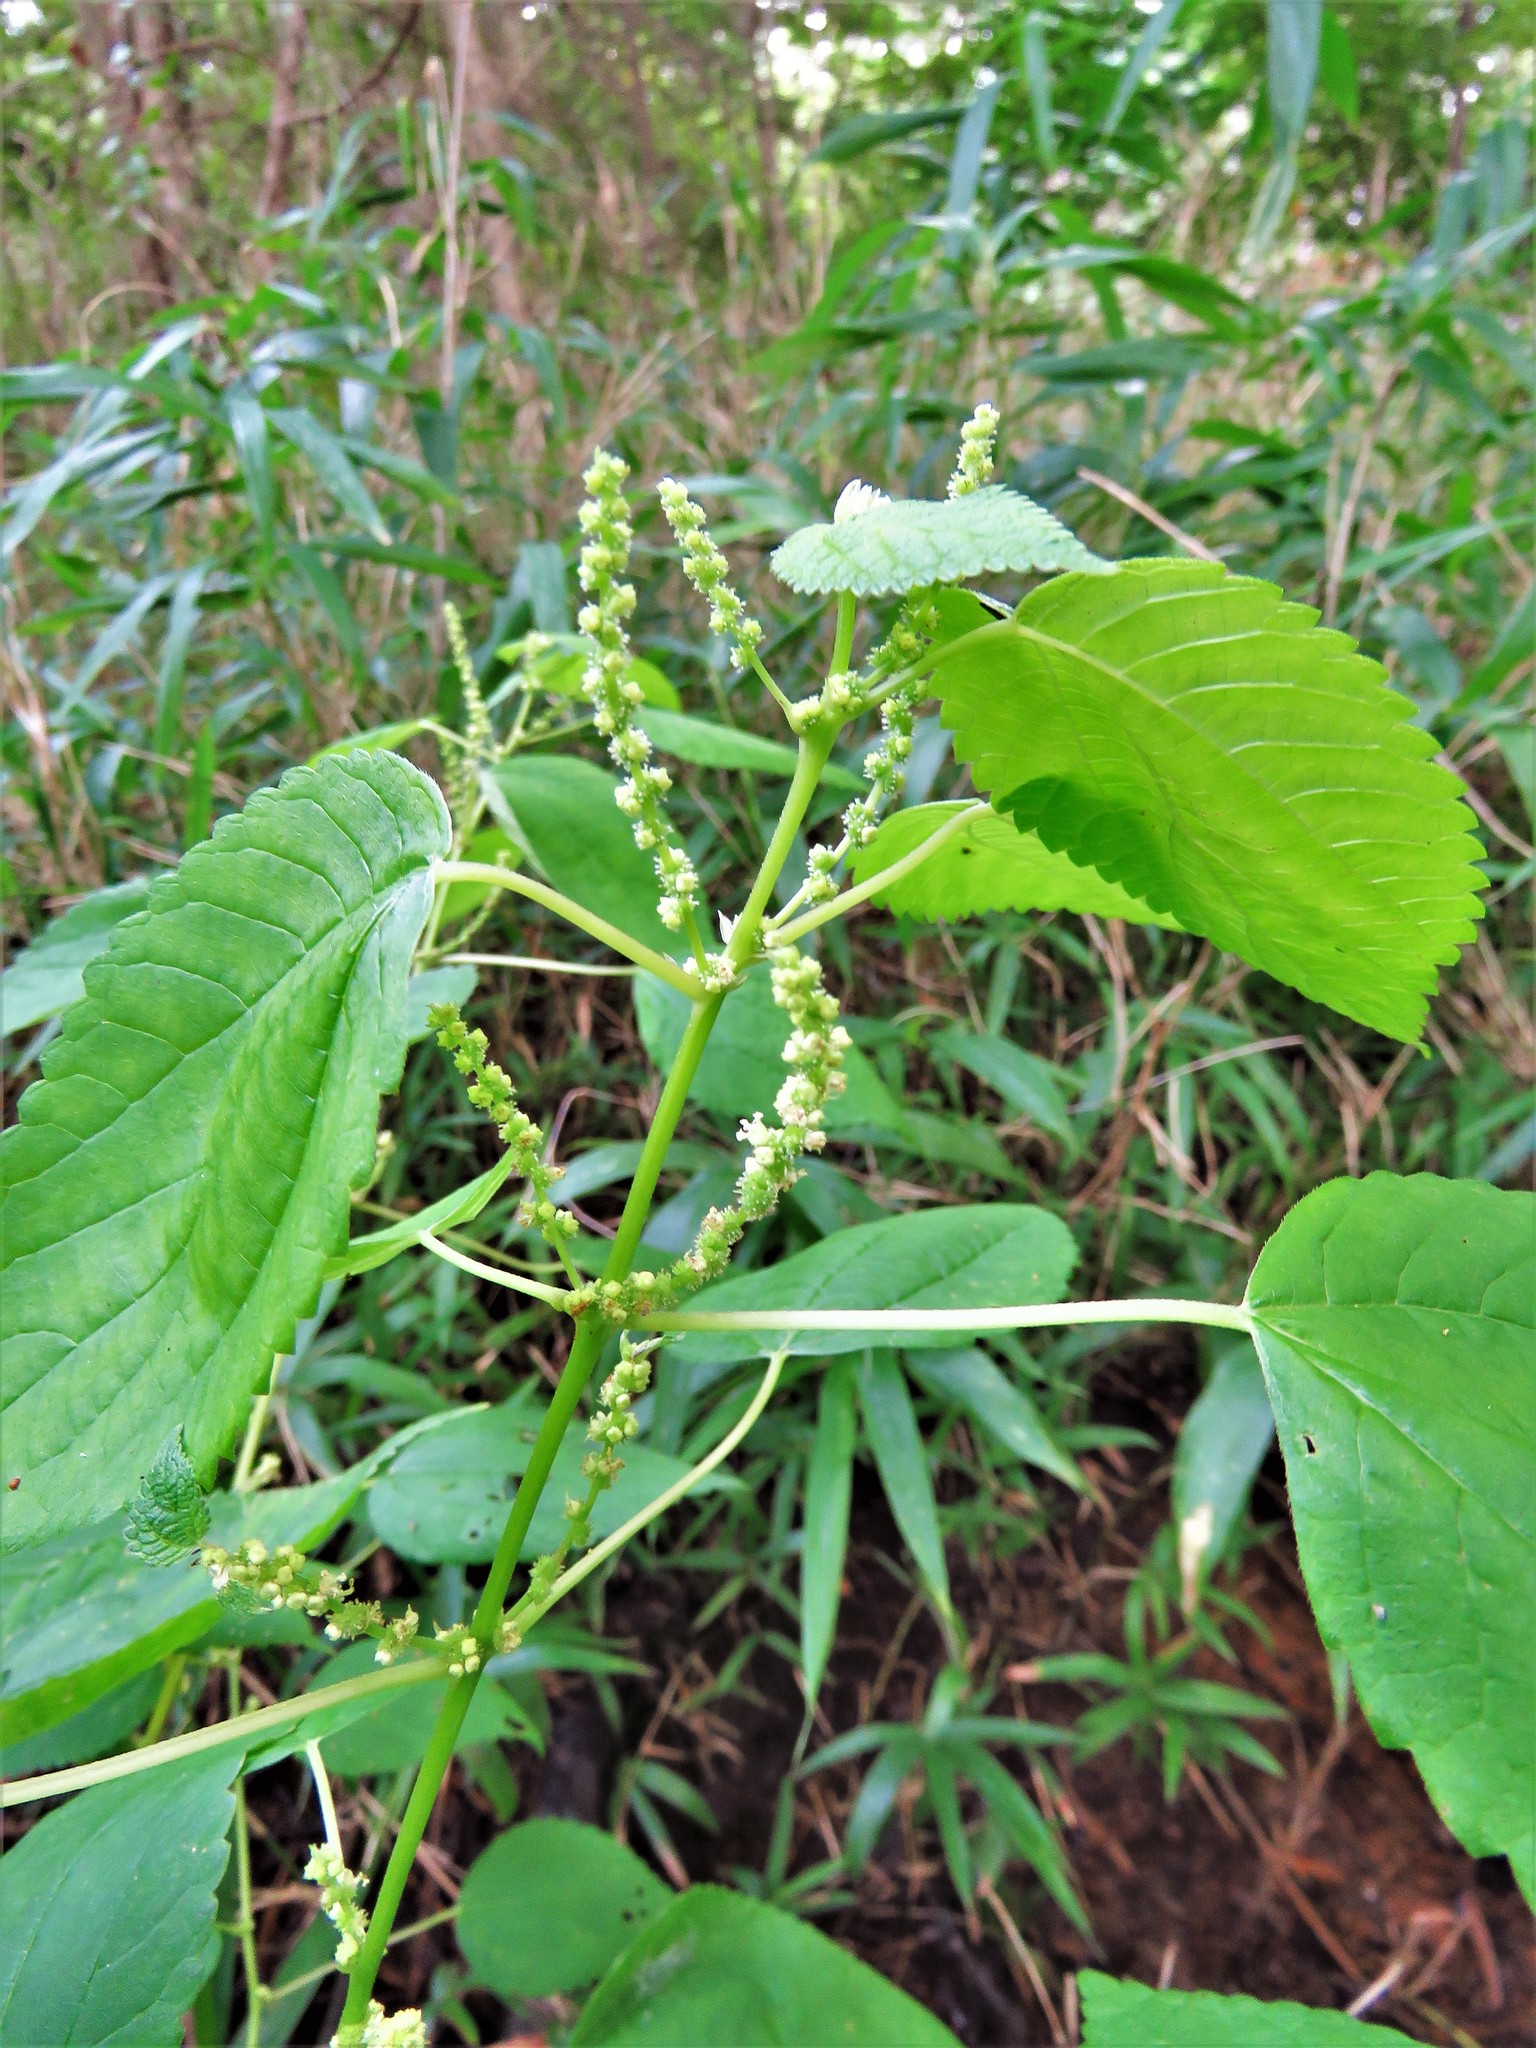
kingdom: Plantae
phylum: Tracheophyta
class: Magnoliopsida
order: Rosales
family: Urticaceae
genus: Boehmeria
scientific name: Boehmeria cylindrica
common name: Bog-hemp
